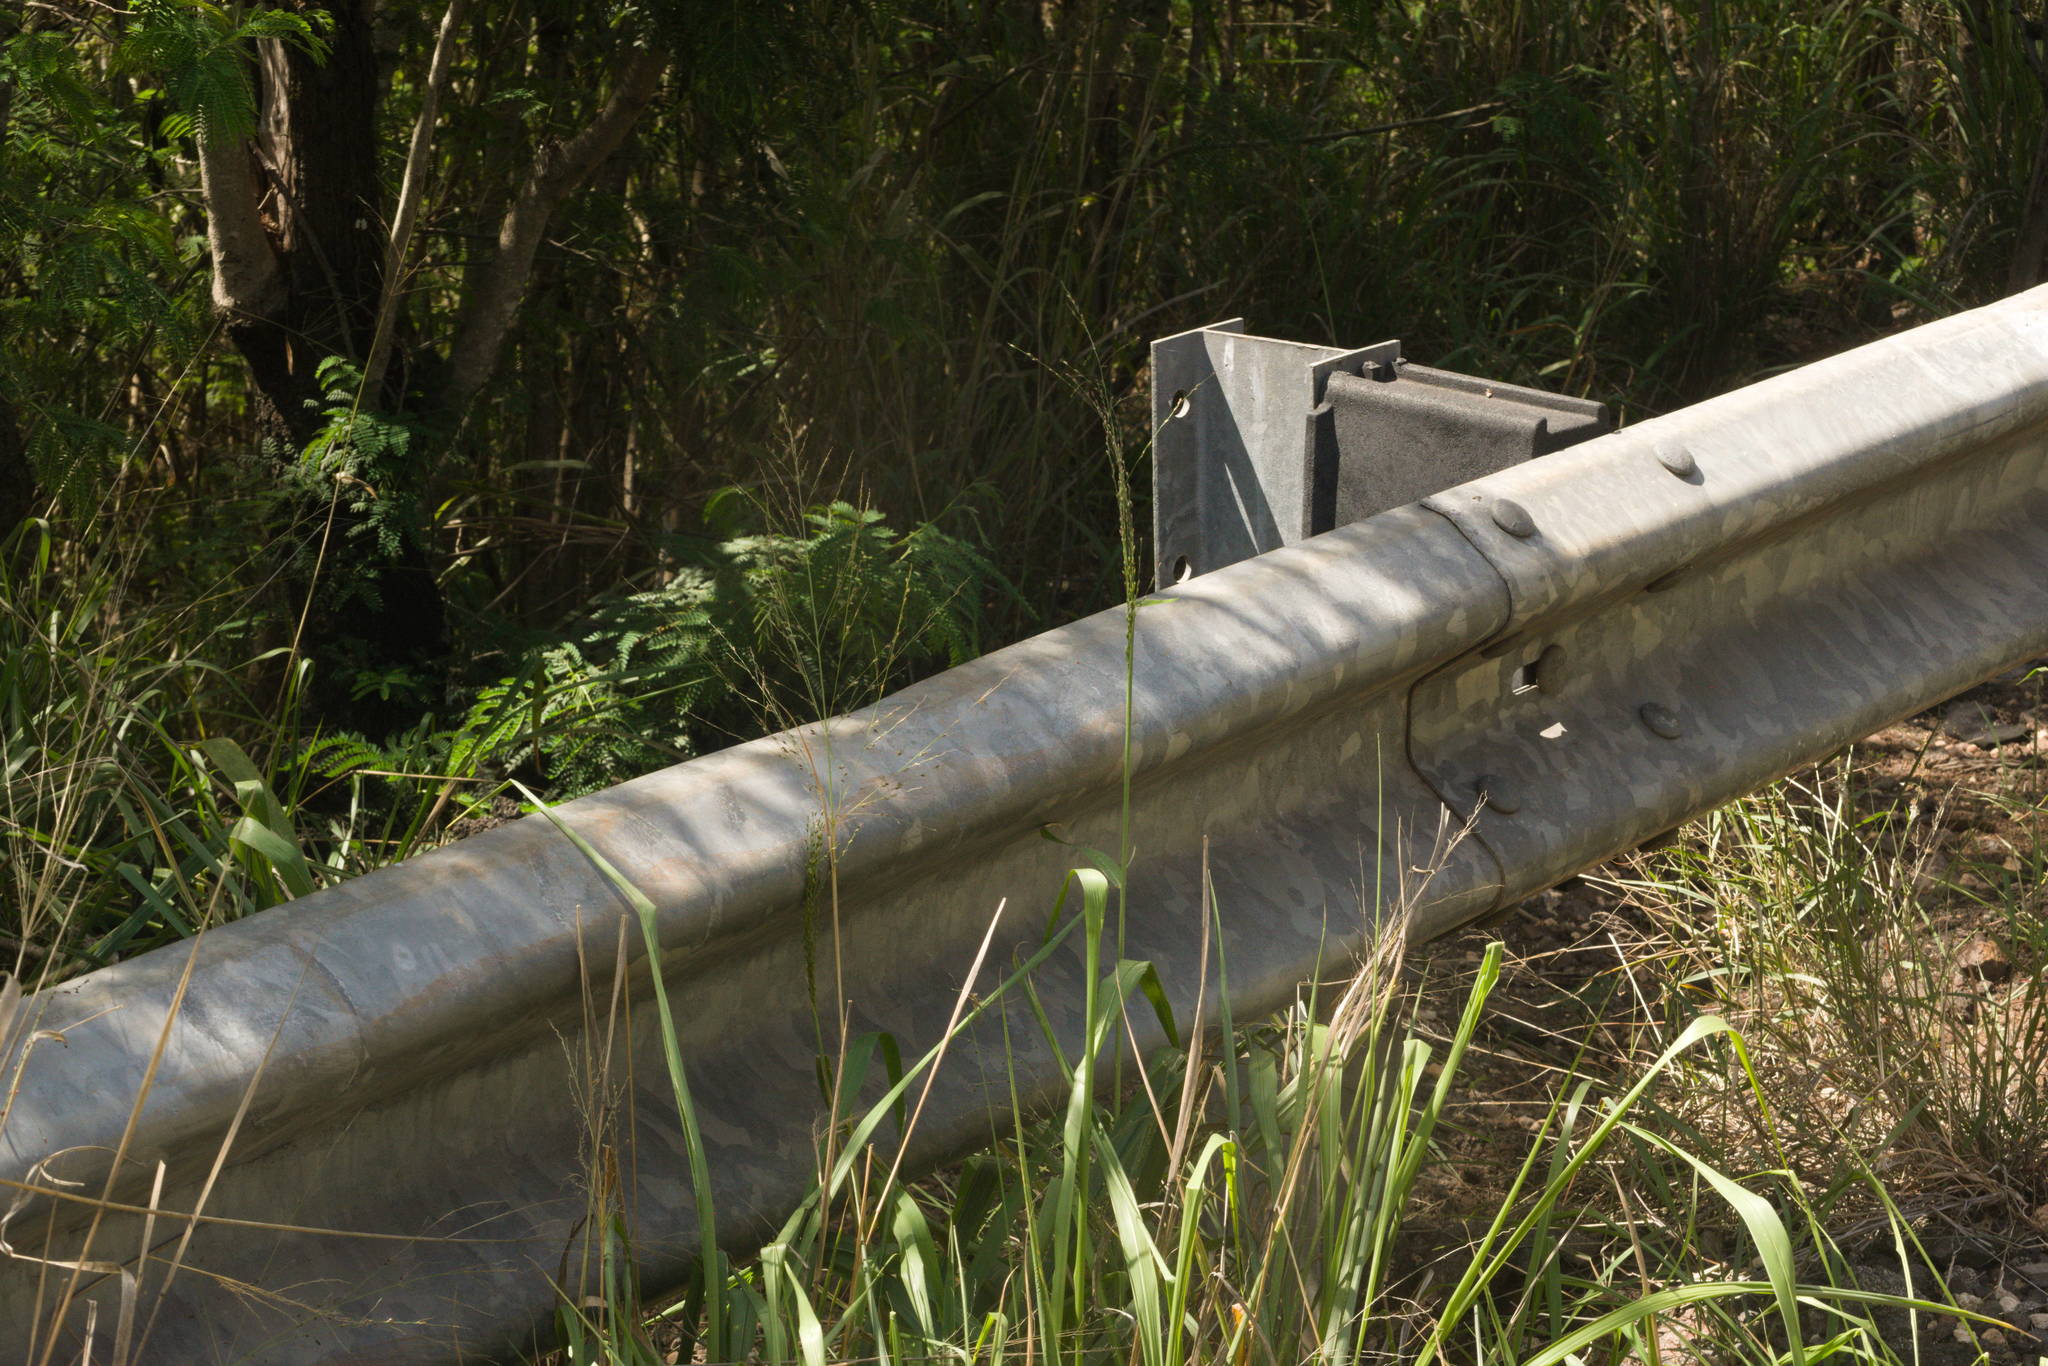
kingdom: Plantae
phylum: Tracheophyta
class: Liliopsida
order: Poales
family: Poaceae
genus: Megathyrsus
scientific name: Megathyrsus maximus
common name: Guineagrass
